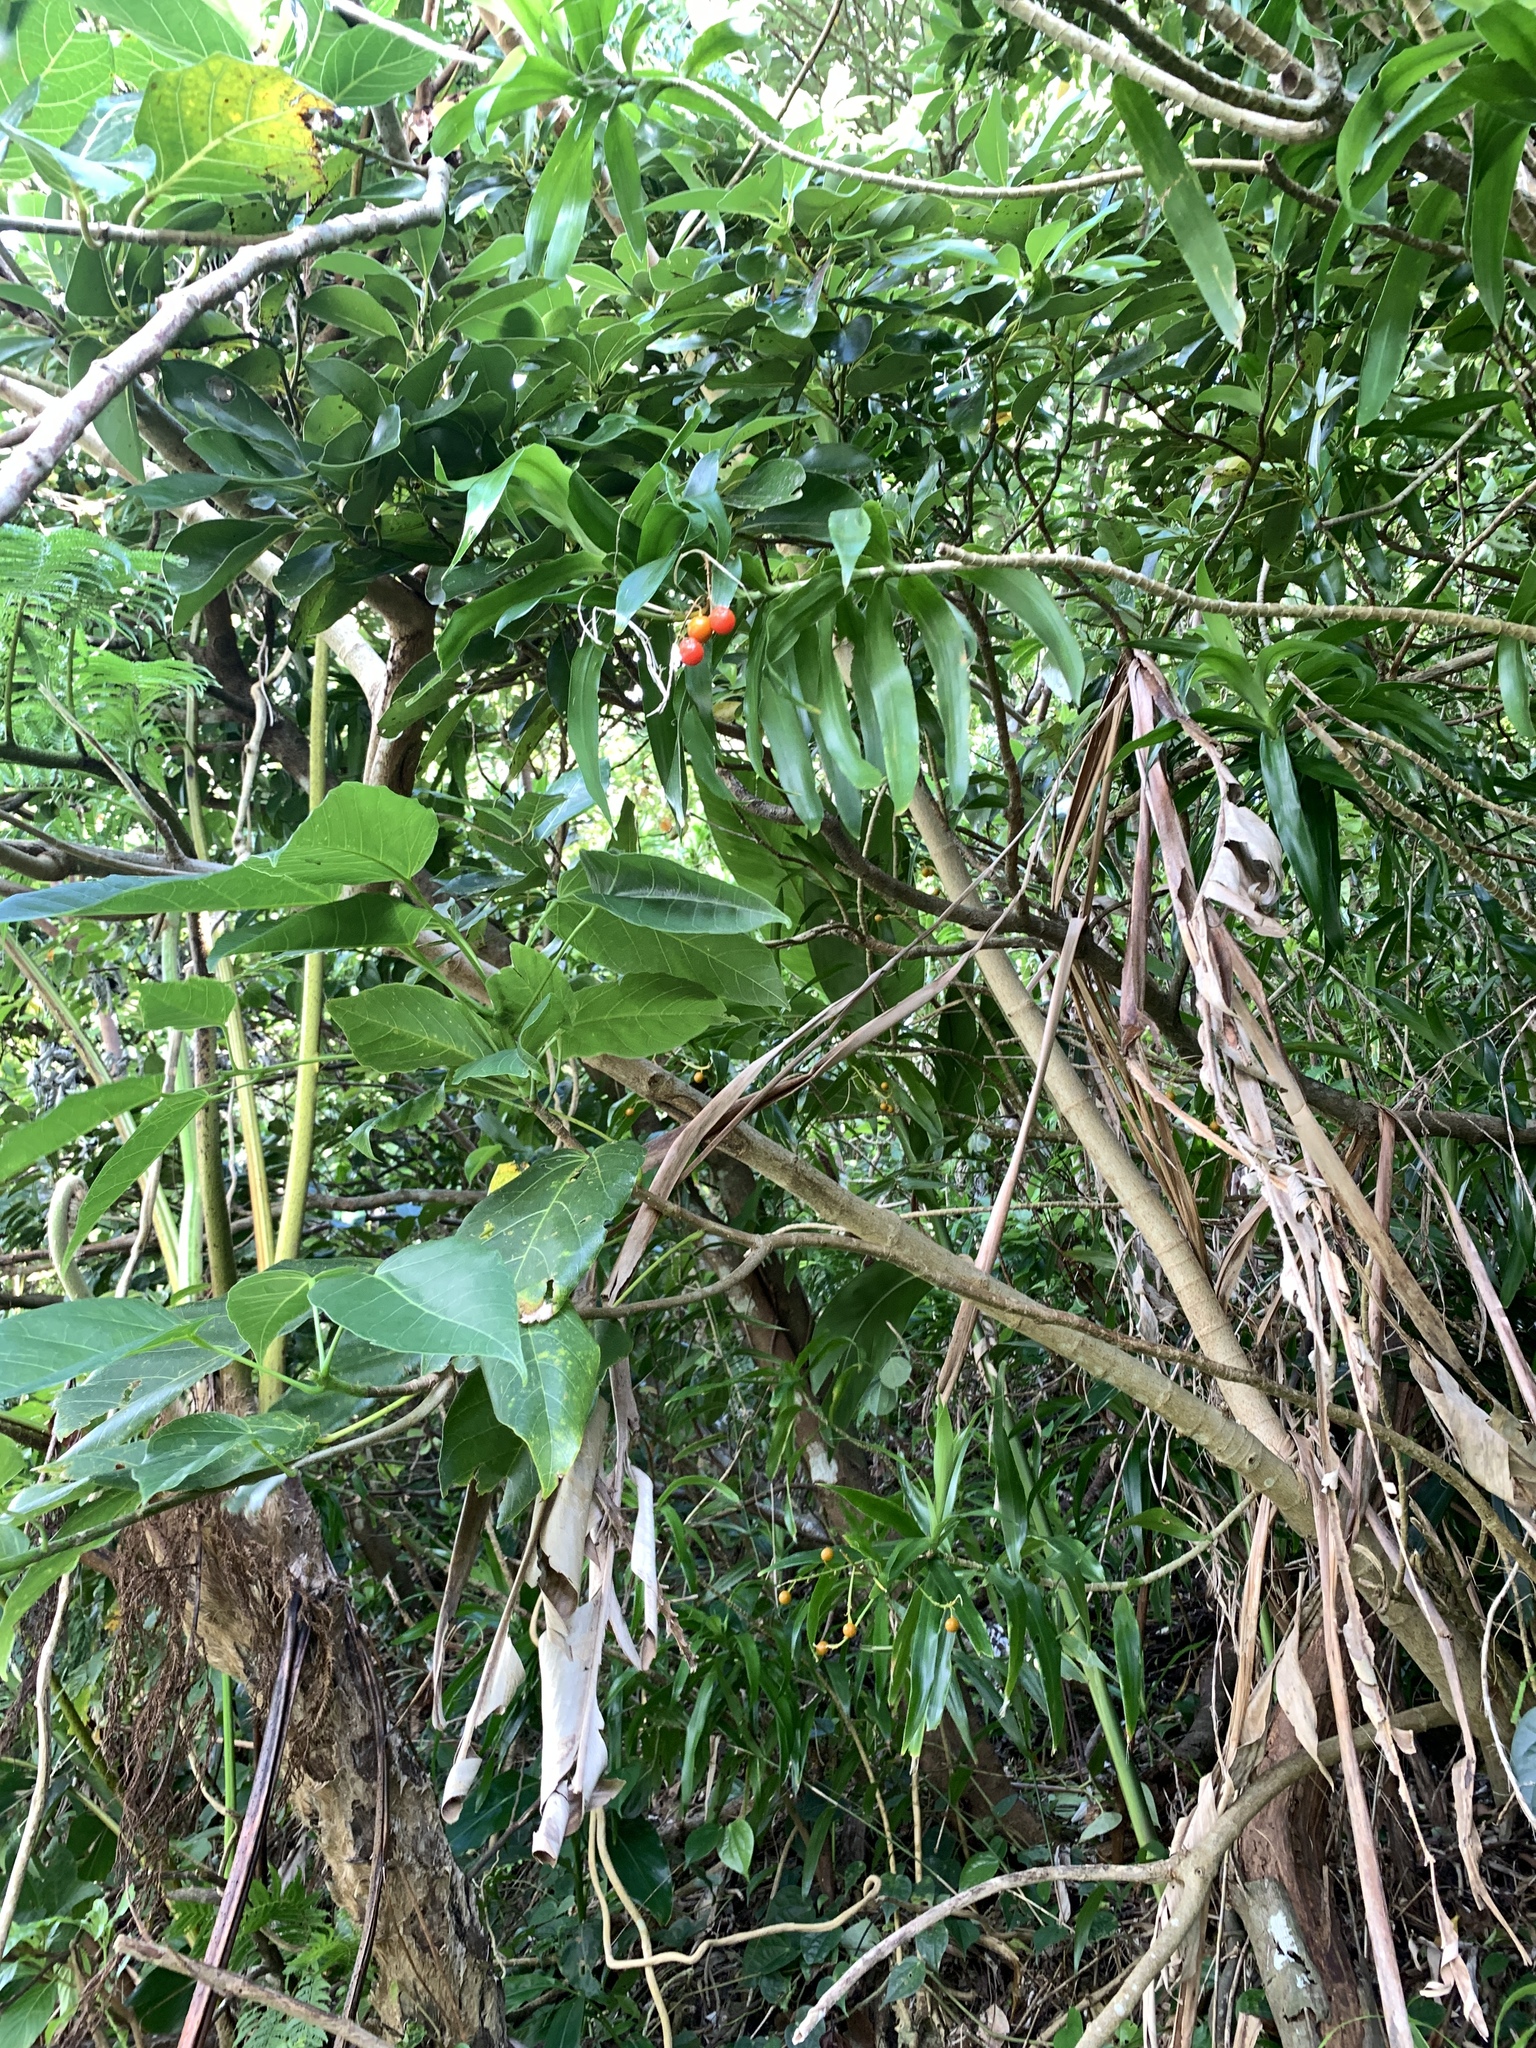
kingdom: Plantae
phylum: Tracheophyta
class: Liliopsida
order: Asparagales
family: Asparagaceae
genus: Dracaena
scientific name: Dracaena angustifolia
